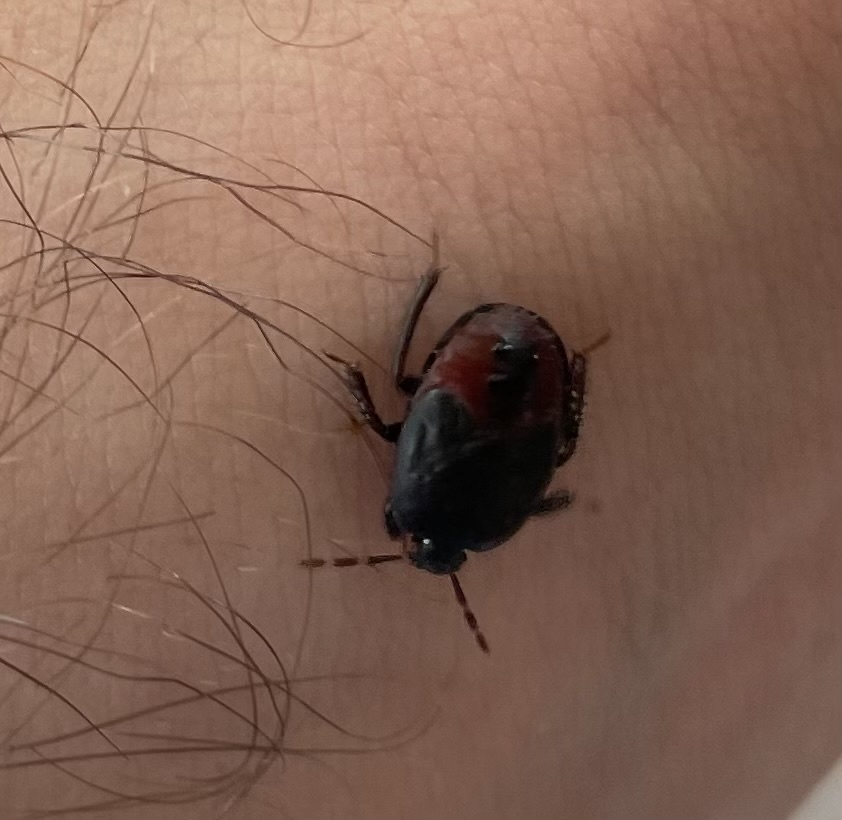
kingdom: Animalia
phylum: Arthropoda
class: Insecta
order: Hemiptera
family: Cydnidae
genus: Cydnus
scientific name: Cydnus aterrimus
